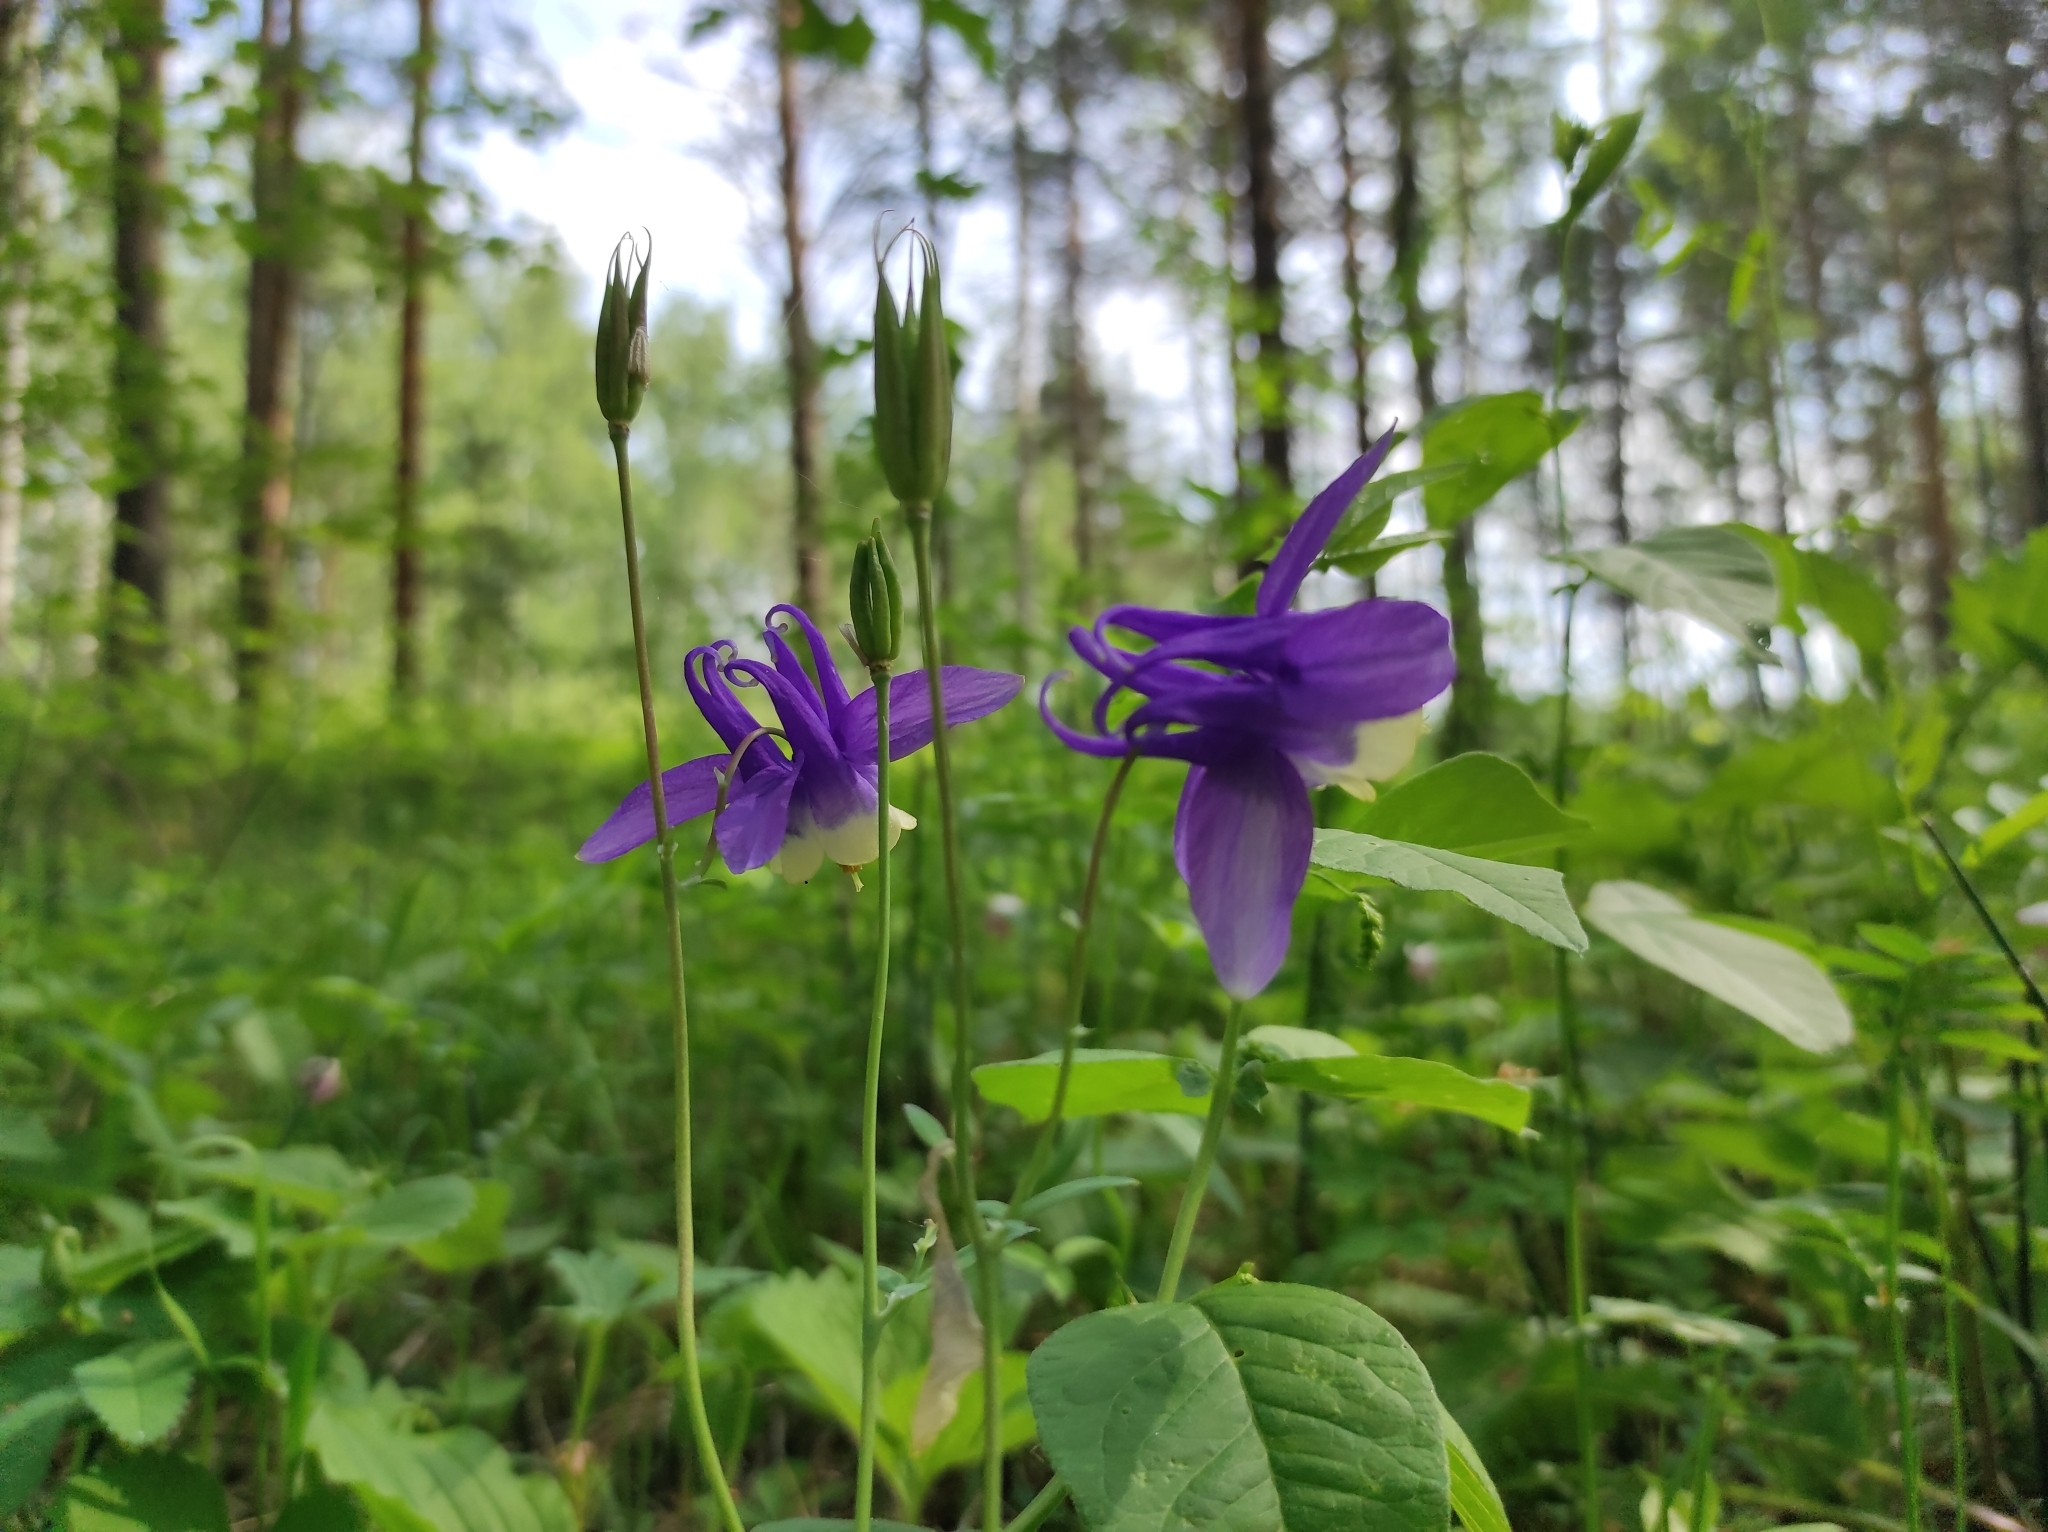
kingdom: Plantae
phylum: Tracheophyta
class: Magnoliopsida
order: Ranunculales
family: Ranunculaceae
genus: Aquilegia
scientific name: Aquilegia sibirica
